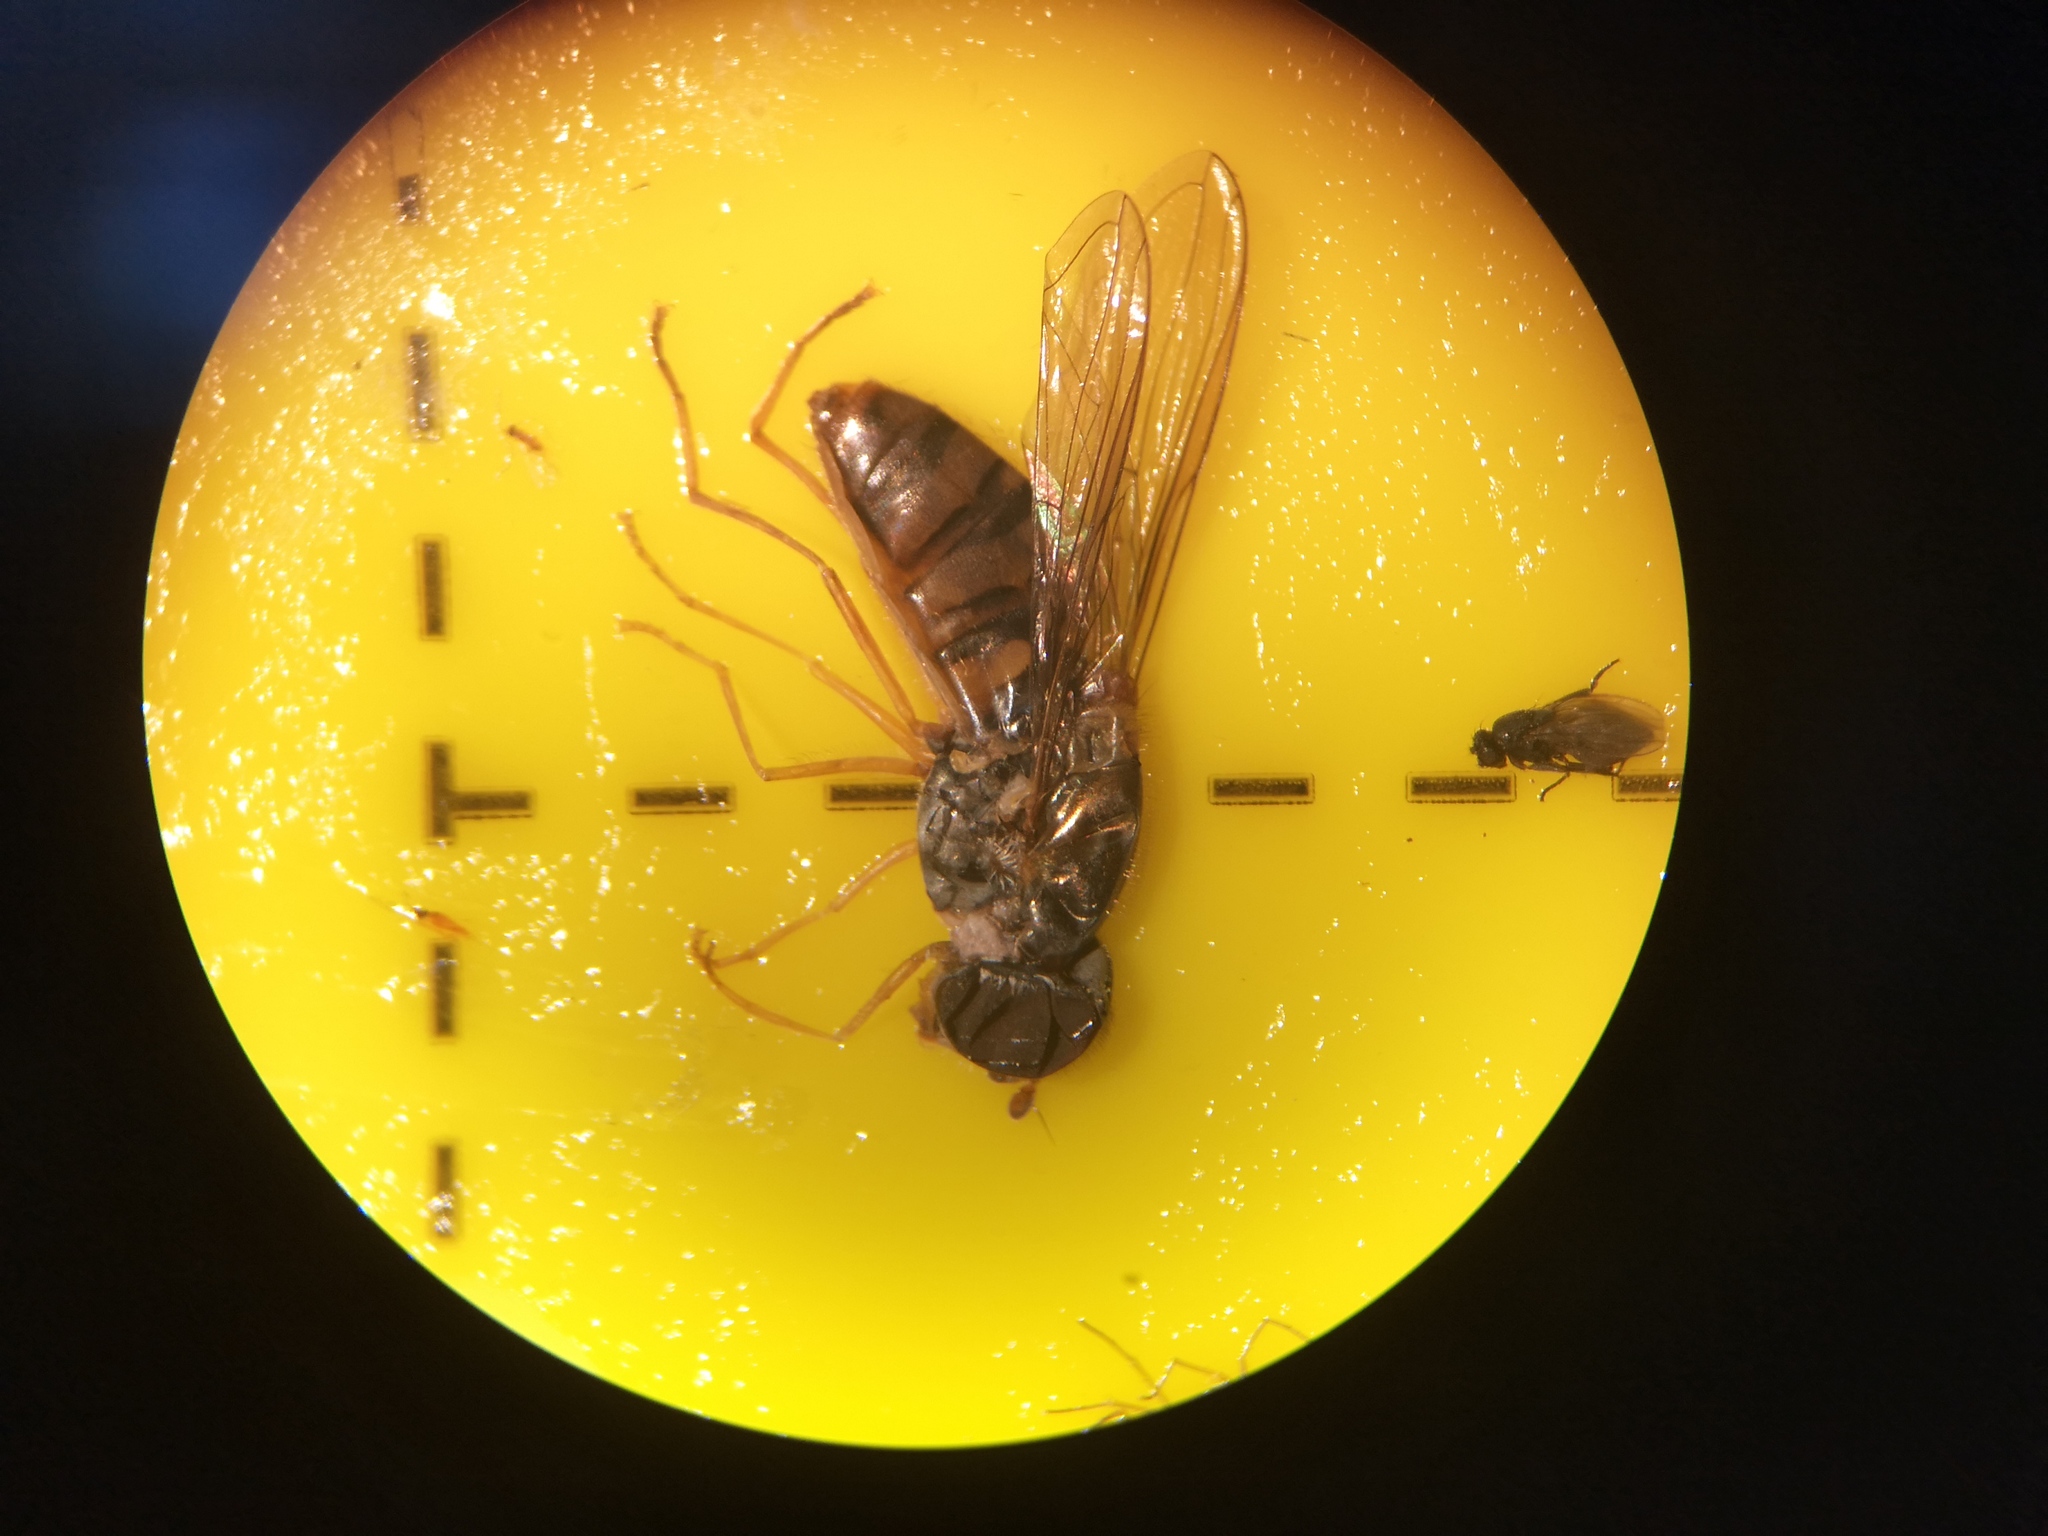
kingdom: Animalia
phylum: Arthropoda
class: Insecta
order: Diptera
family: Syrphidae
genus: Episyrphus
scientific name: Episyrphus balteatus
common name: Marmalade hoverfly
